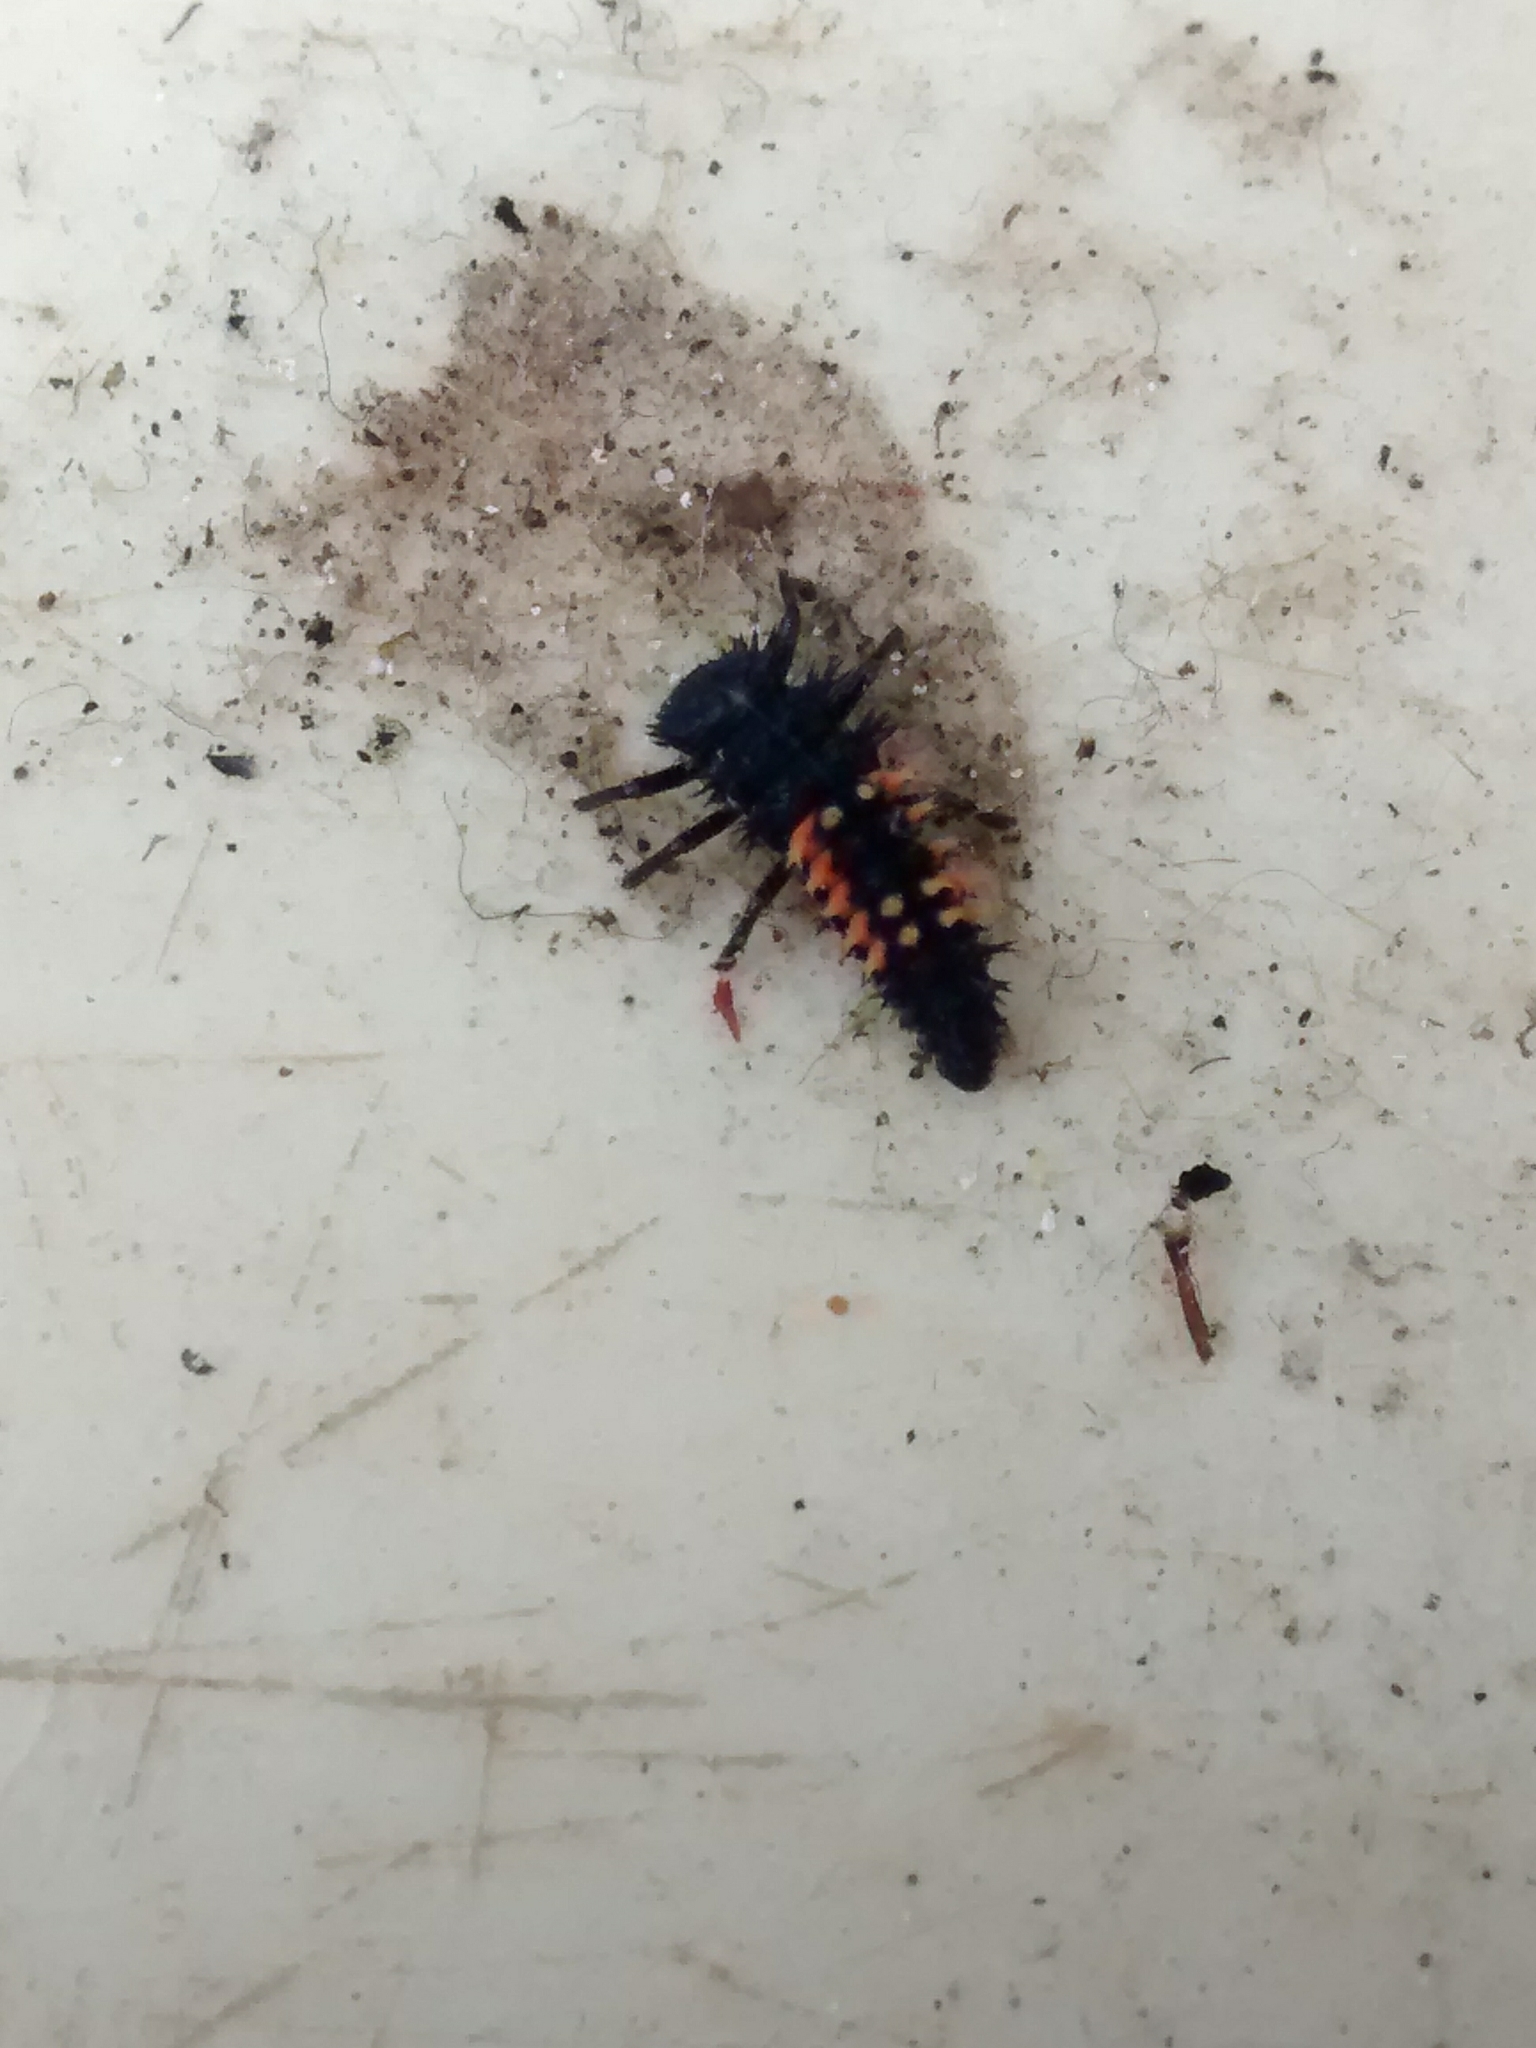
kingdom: Animalia
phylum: Arthropoda
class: Insecta
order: Coleoptera
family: Coccinellidae
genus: Harmonia
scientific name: Harmonia axyridis
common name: Harlequin ladybird
